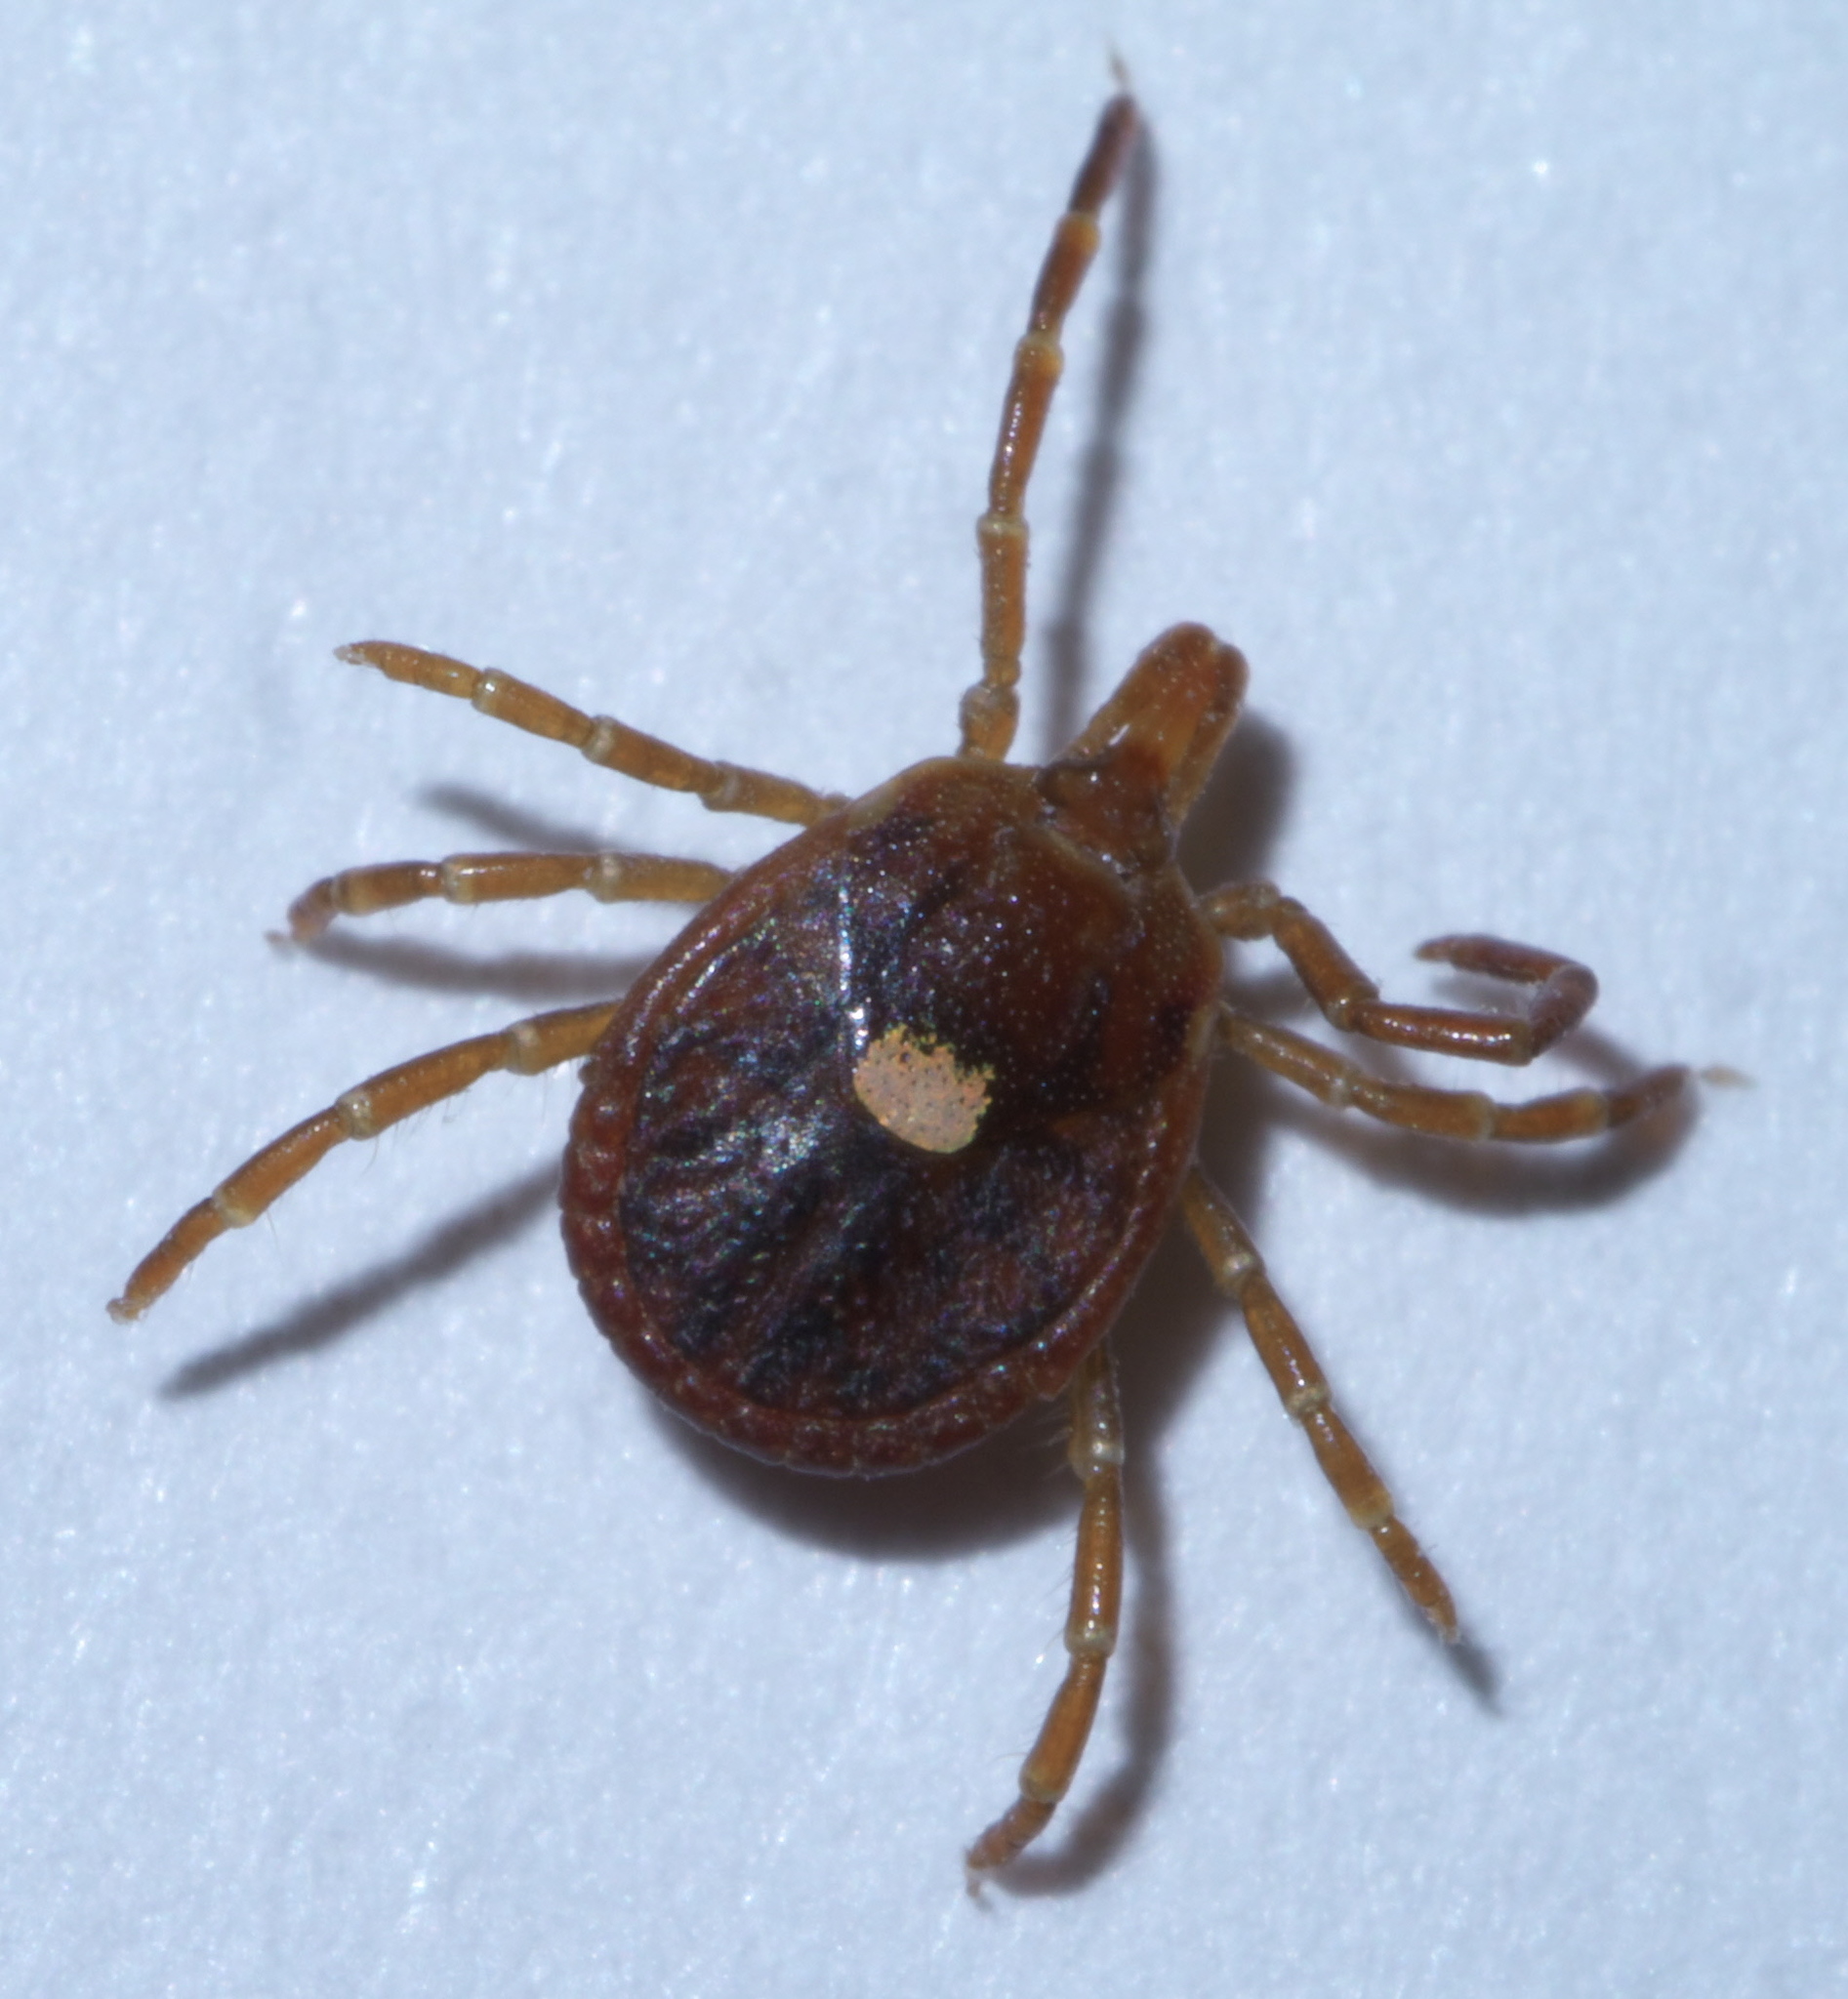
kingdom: Animalia
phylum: Arthropoda
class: Arachnida
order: Ixodida
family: Ixodidae
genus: Amblyomma
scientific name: Amblyomma americanum
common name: Lone star tick
